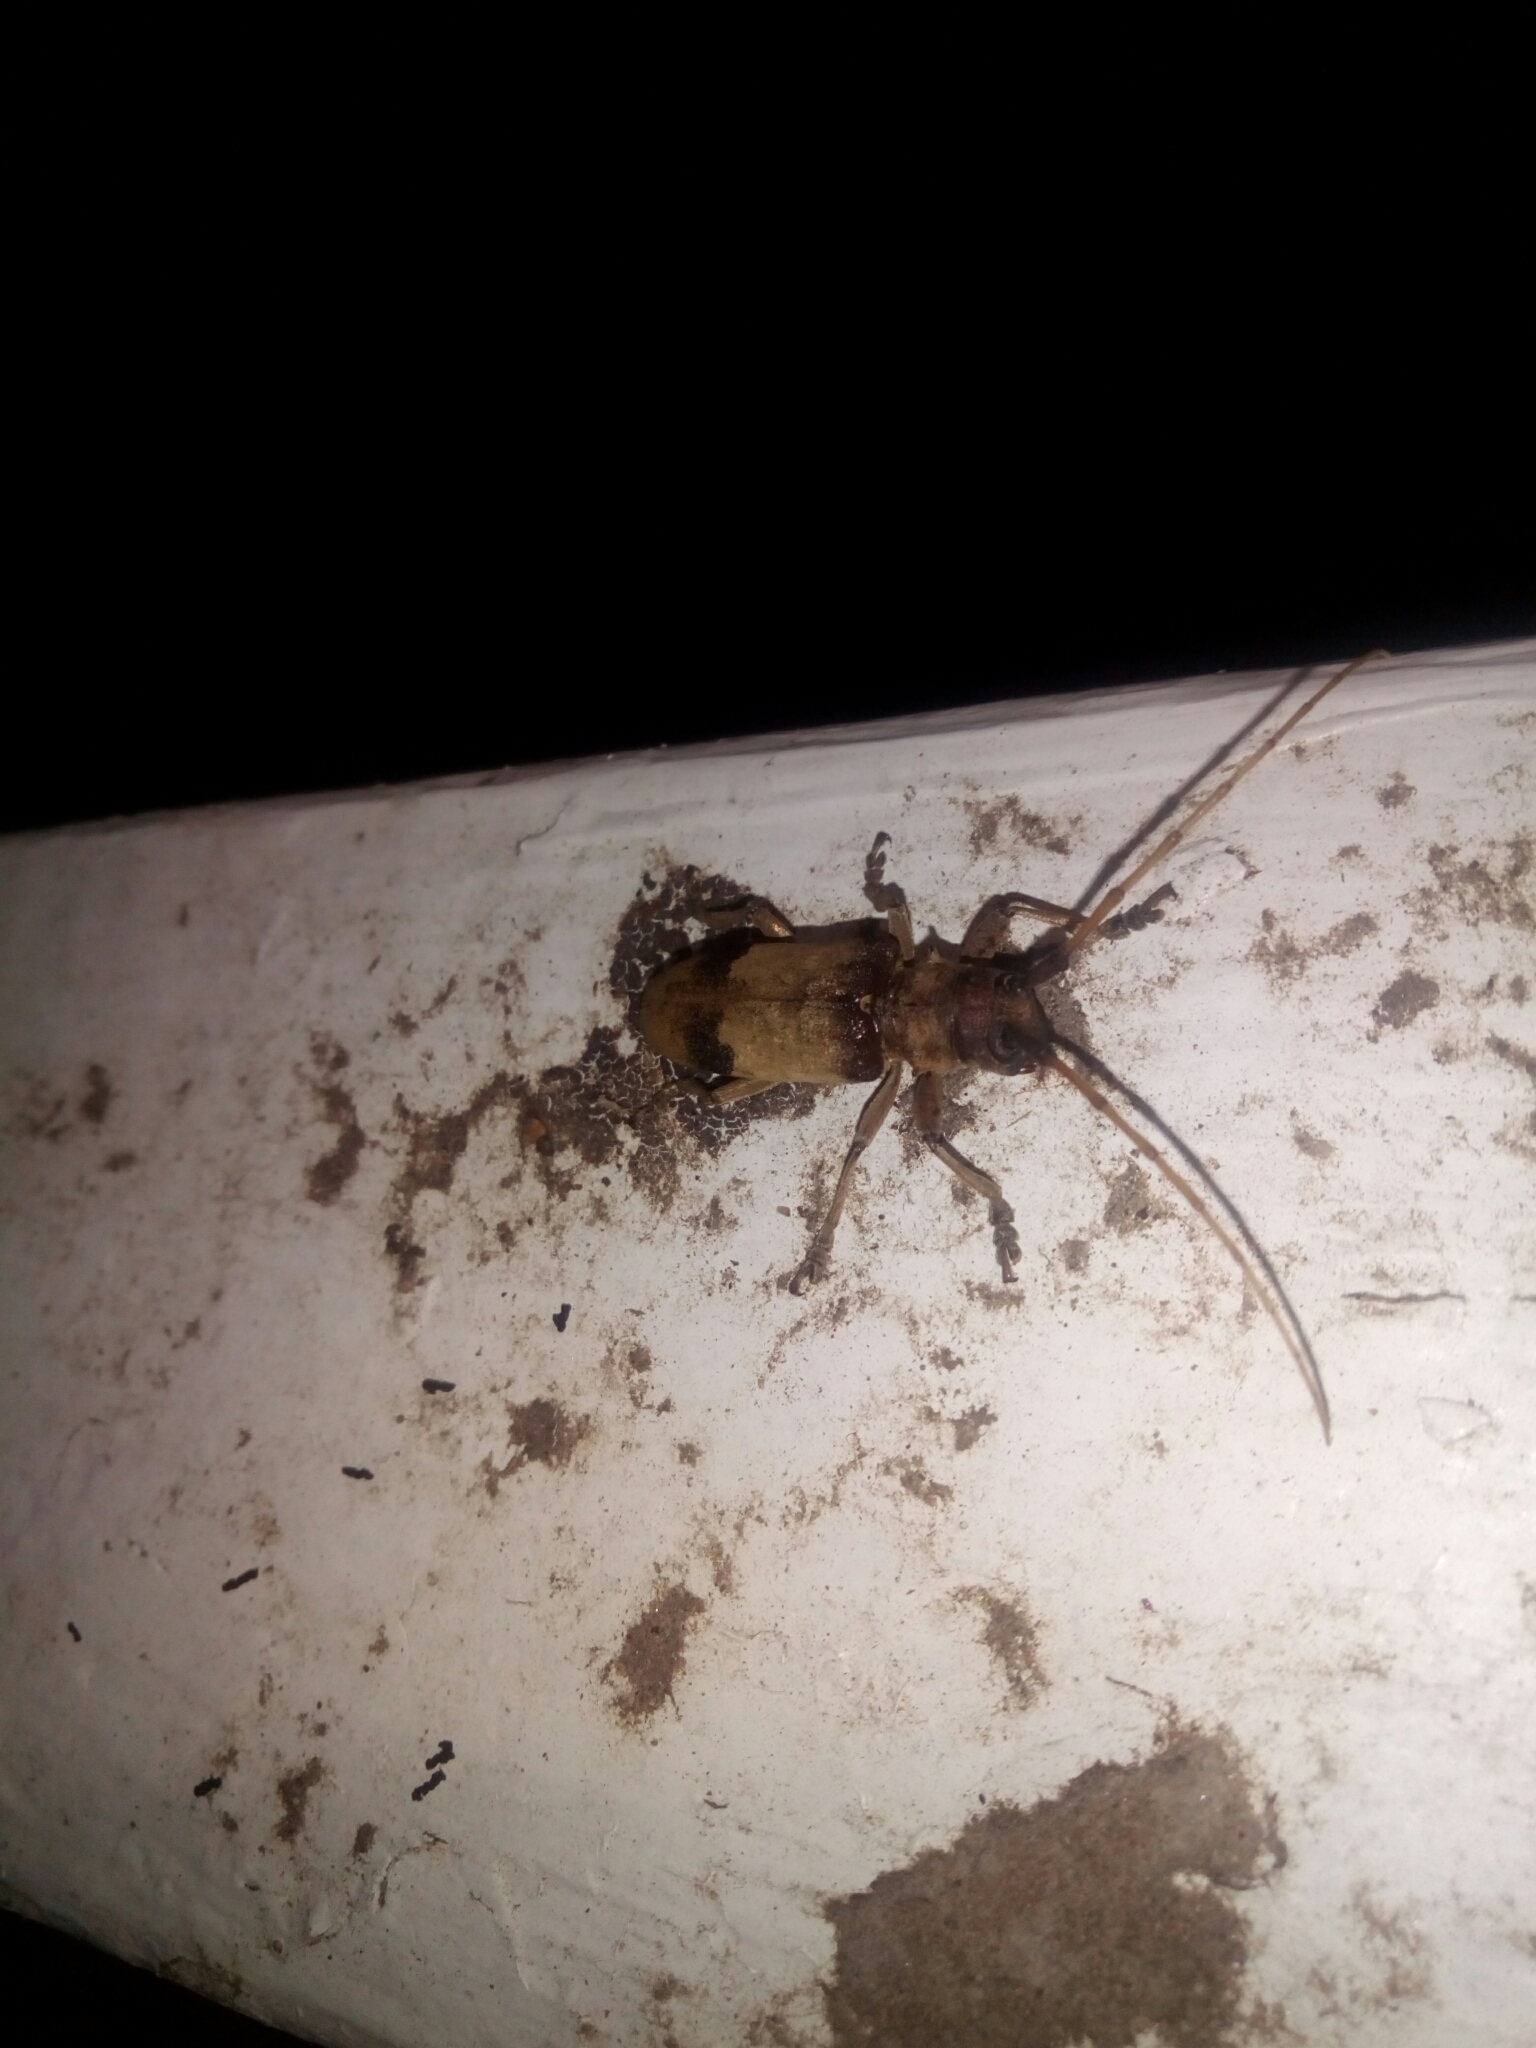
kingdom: Animalia
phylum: Arthropoda
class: Insecta
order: Coleoptera
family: Cerambycidae
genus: Goes
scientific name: Goes pulcher
